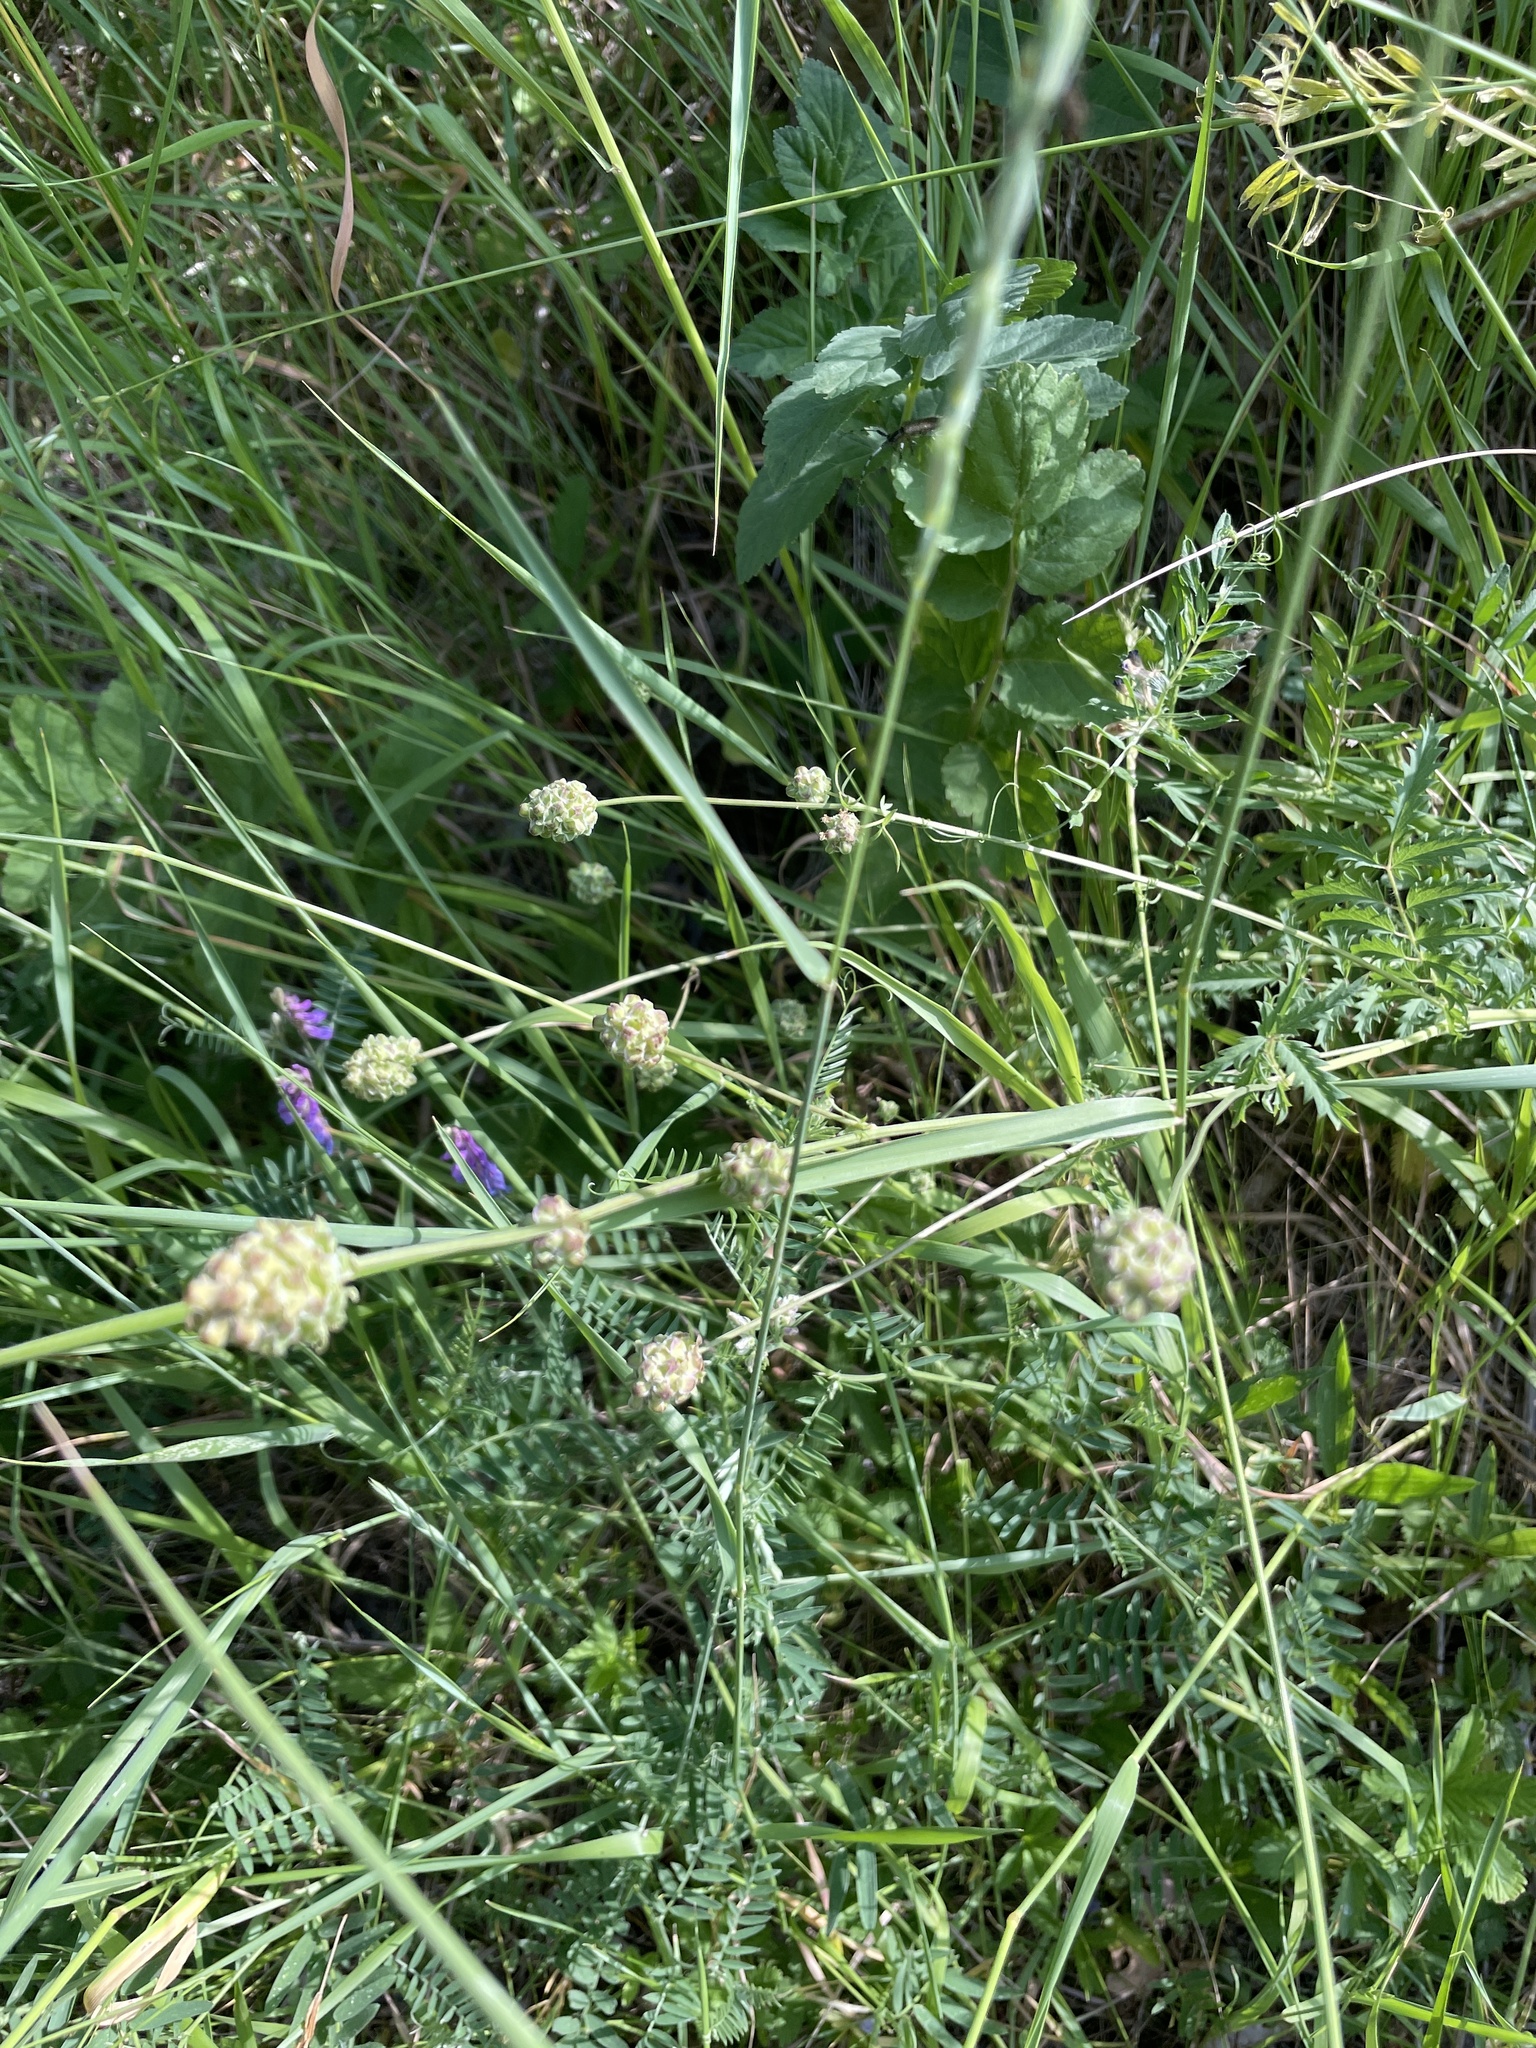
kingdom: Plantae
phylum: Tracheophyta
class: Magnoliopsida
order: Rosales
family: Rosaceae
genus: Poterium
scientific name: Poterium sanguisorba
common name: Salad burnet
